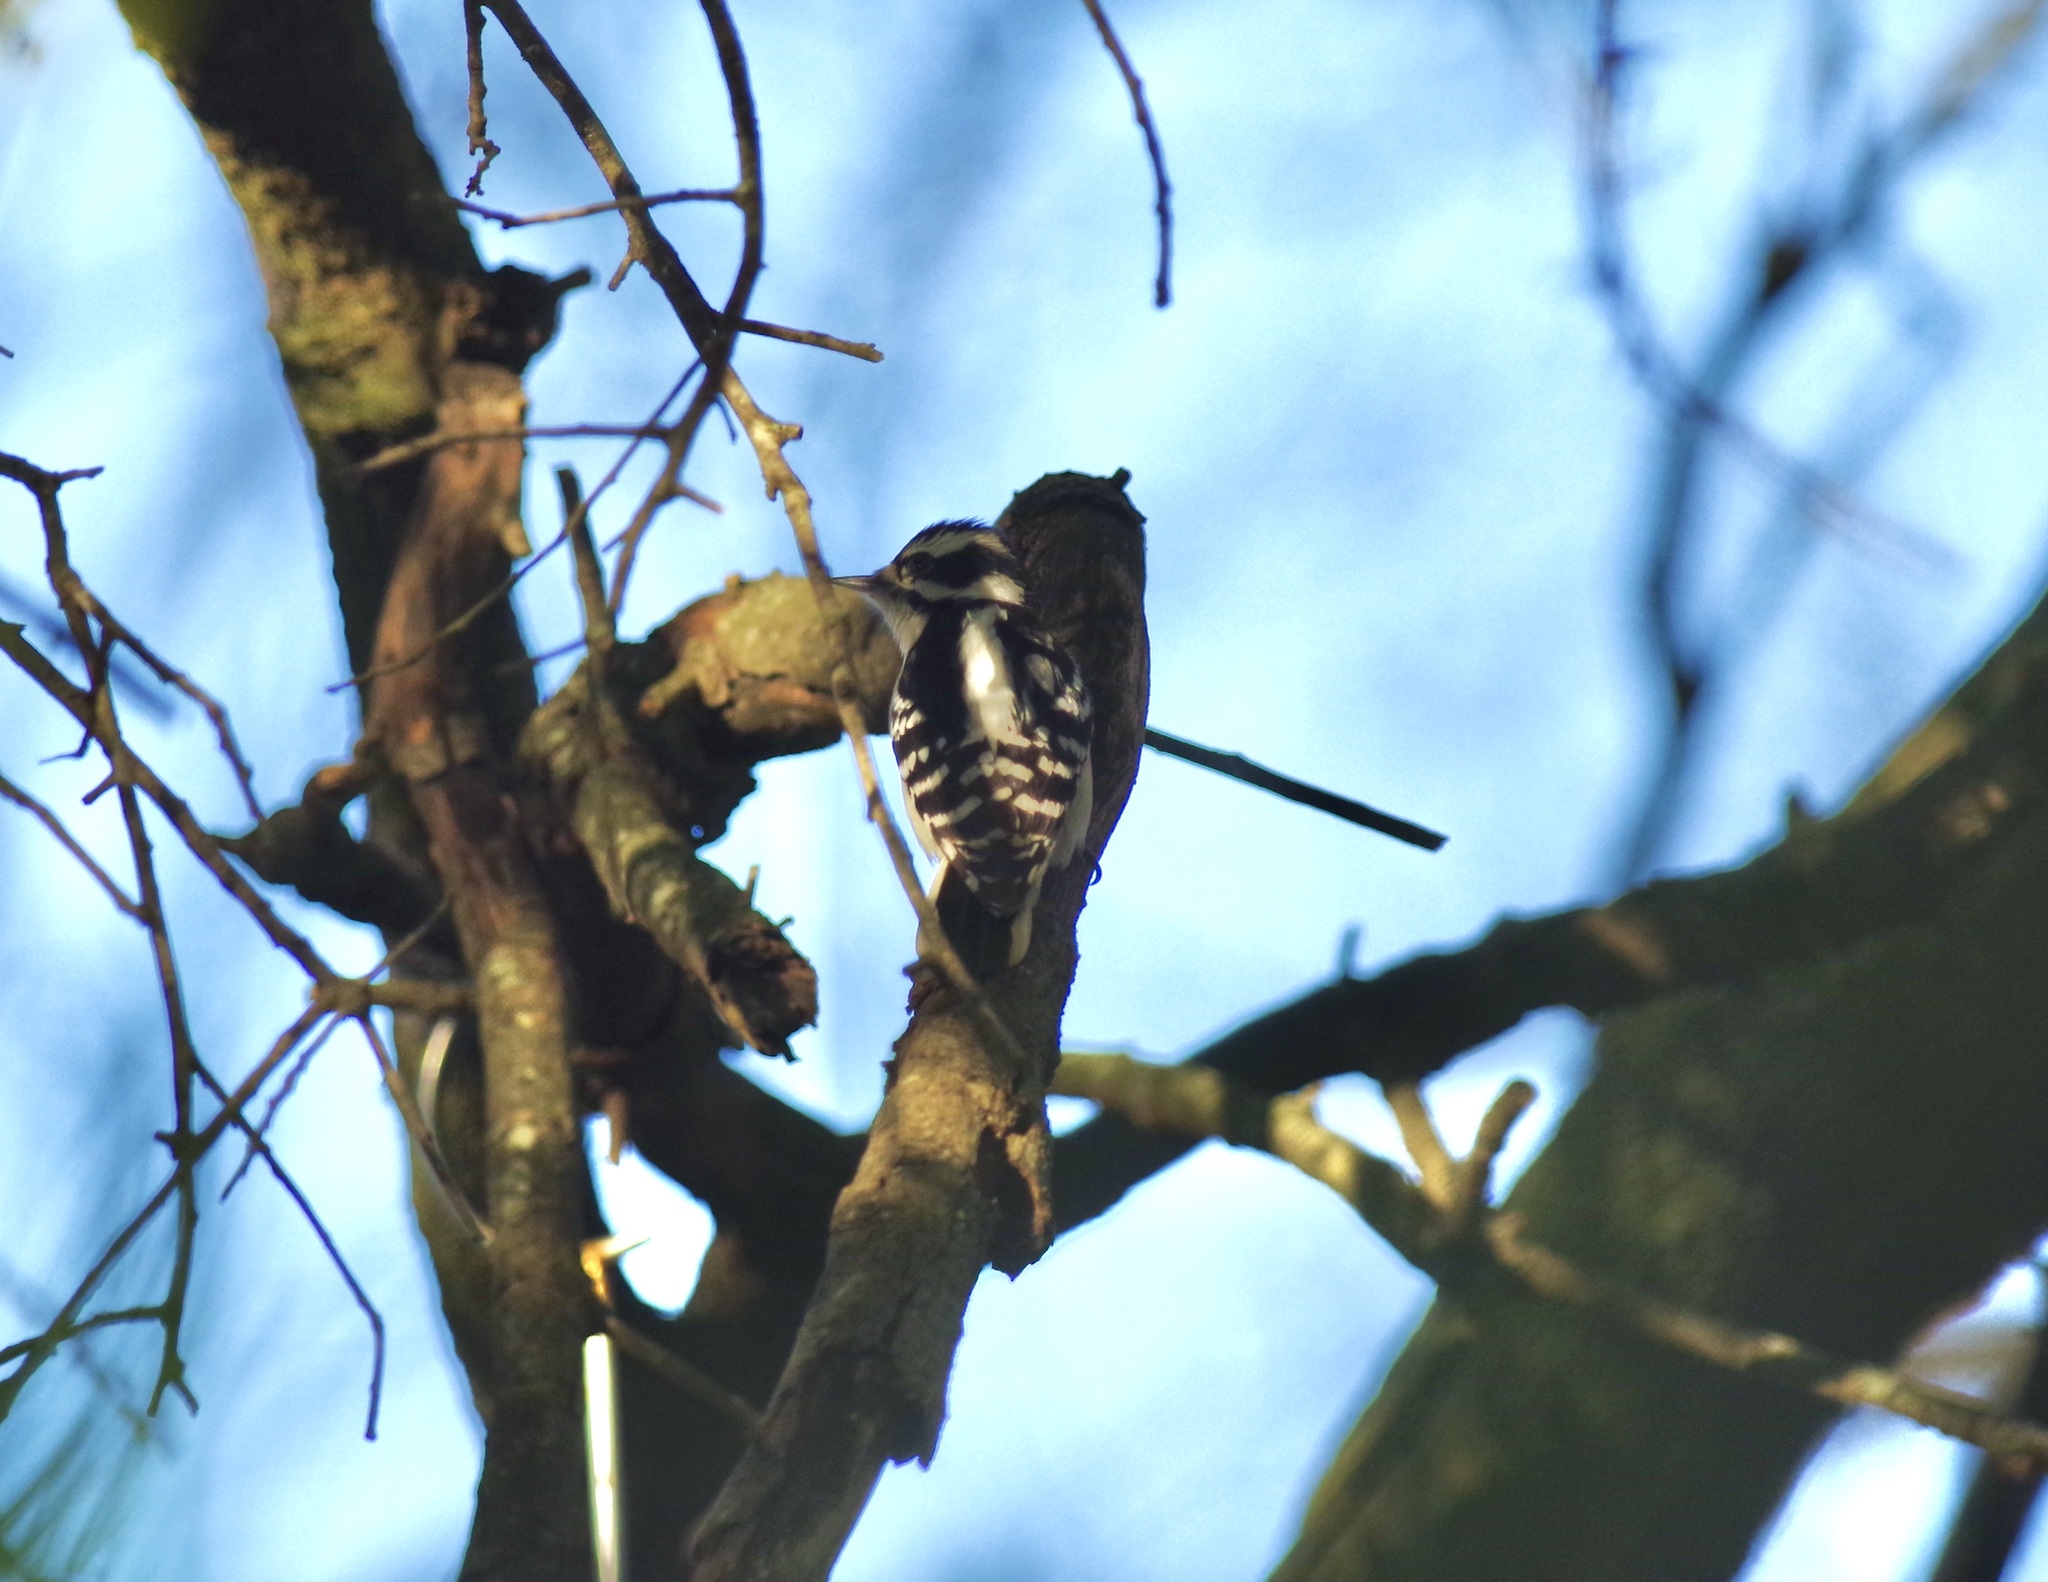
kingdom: Animalia
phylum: Chordata
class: Aves
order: Piciformes
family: Picidae
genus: Dryobates
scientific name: Dryobates pubescens
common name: Downy woodpecker
